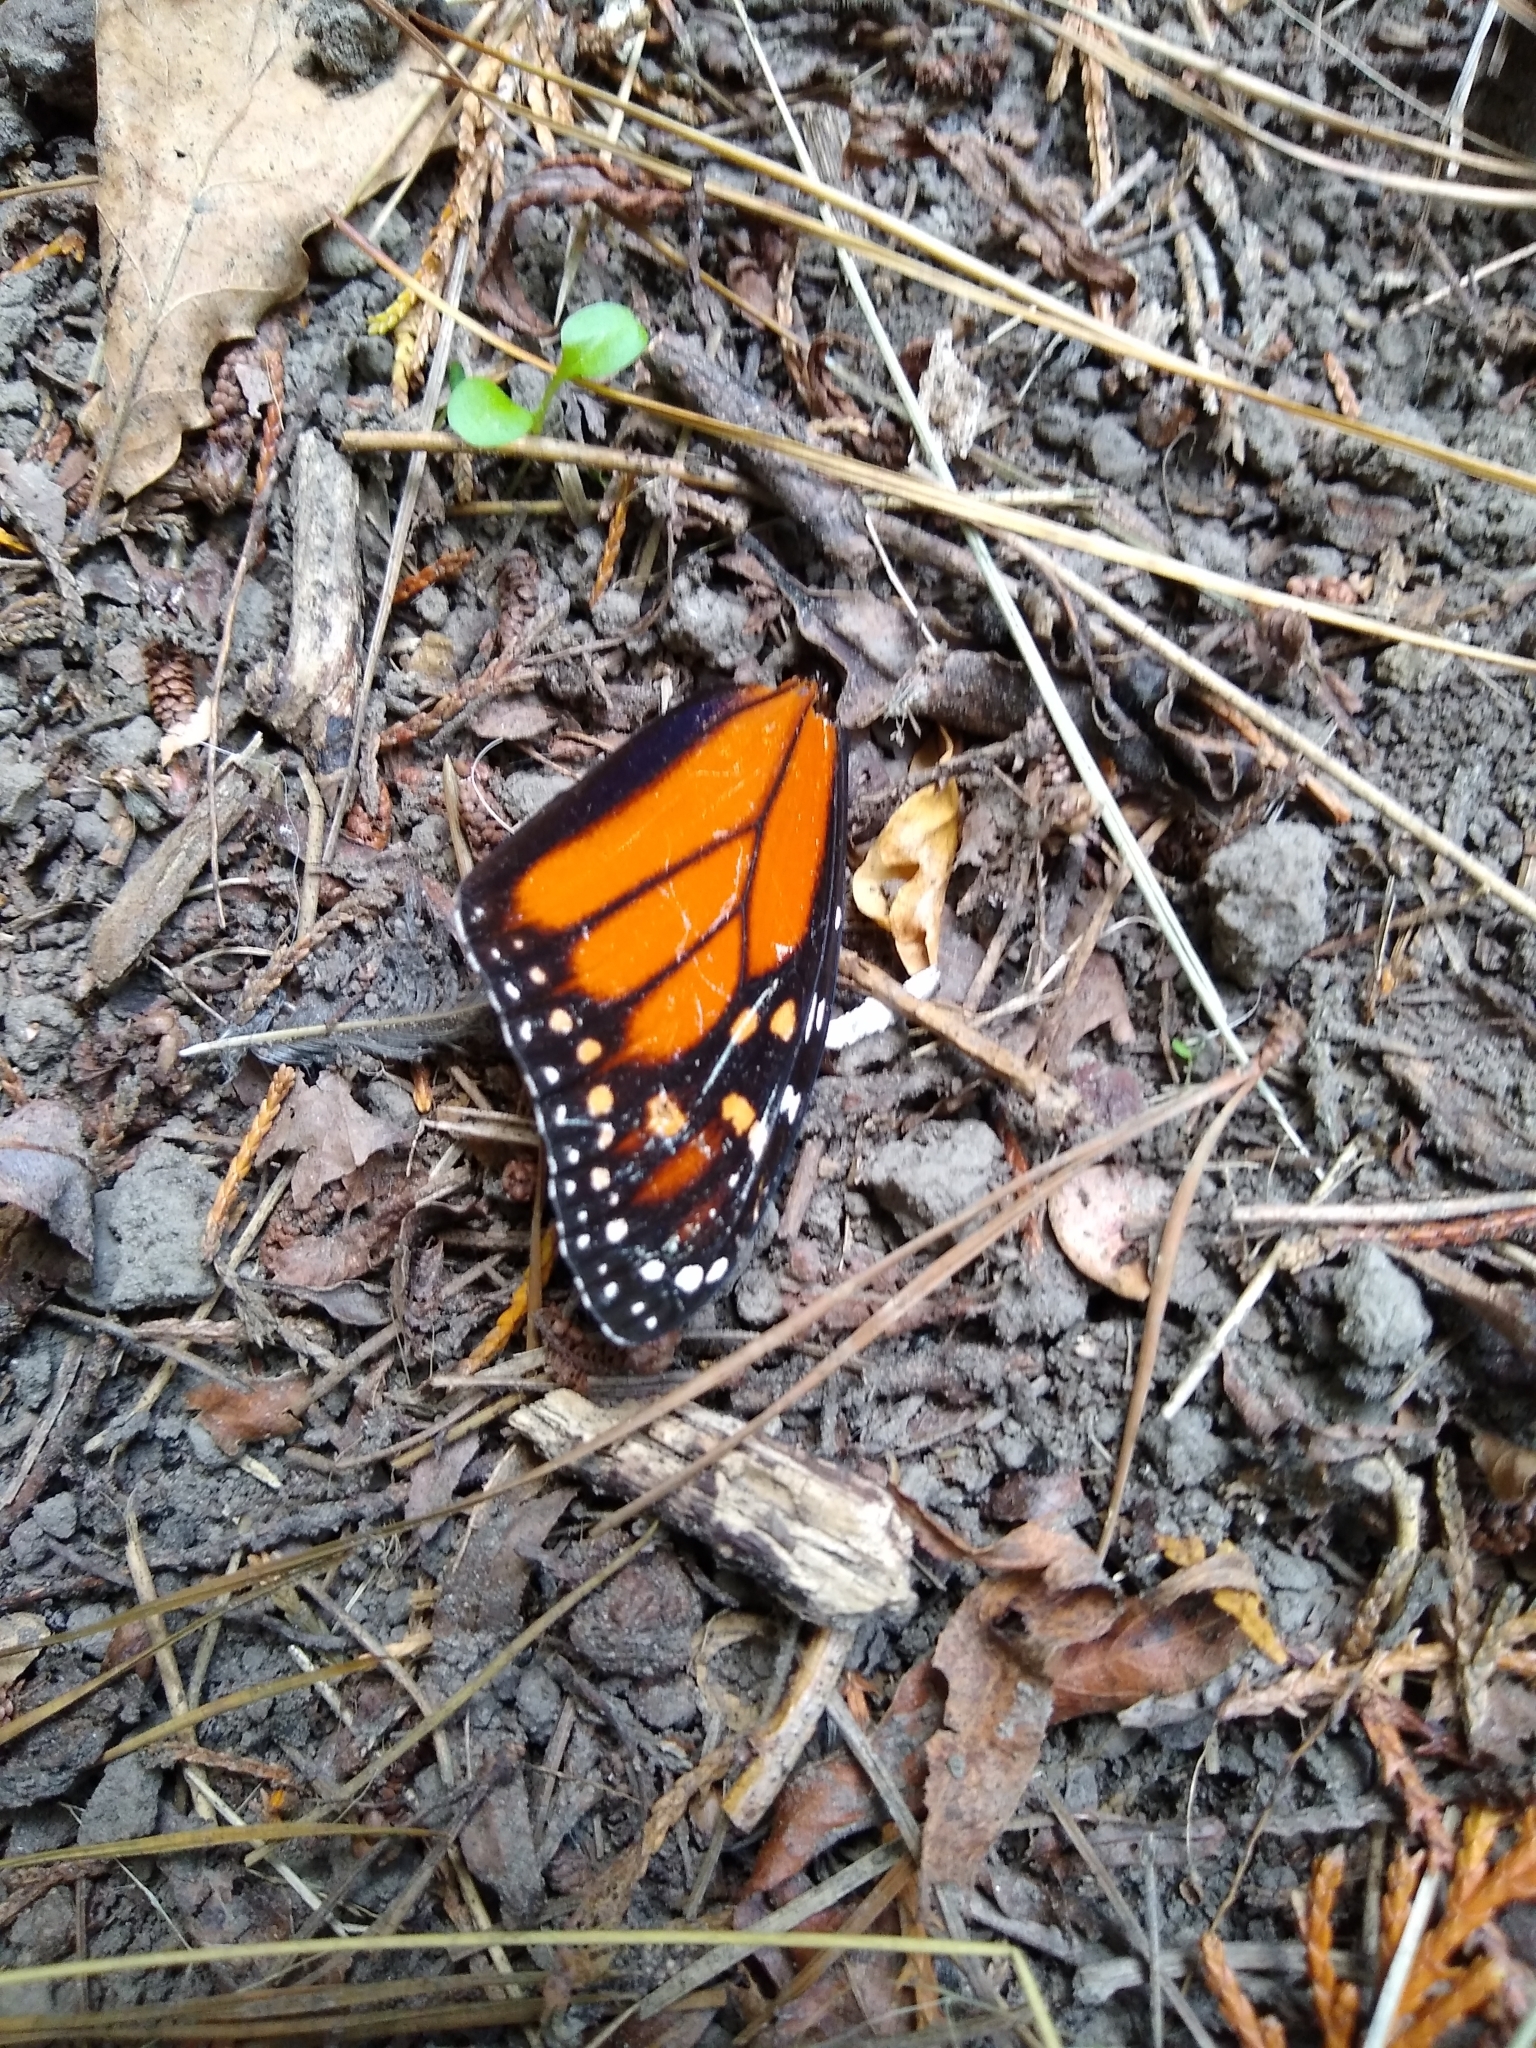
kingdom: Animalia
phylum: Arthropoda
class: Insecta
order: Lepidoptera
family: Nymphalidae
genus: Danaus
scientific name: Danaus plexippus
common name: Monarch
